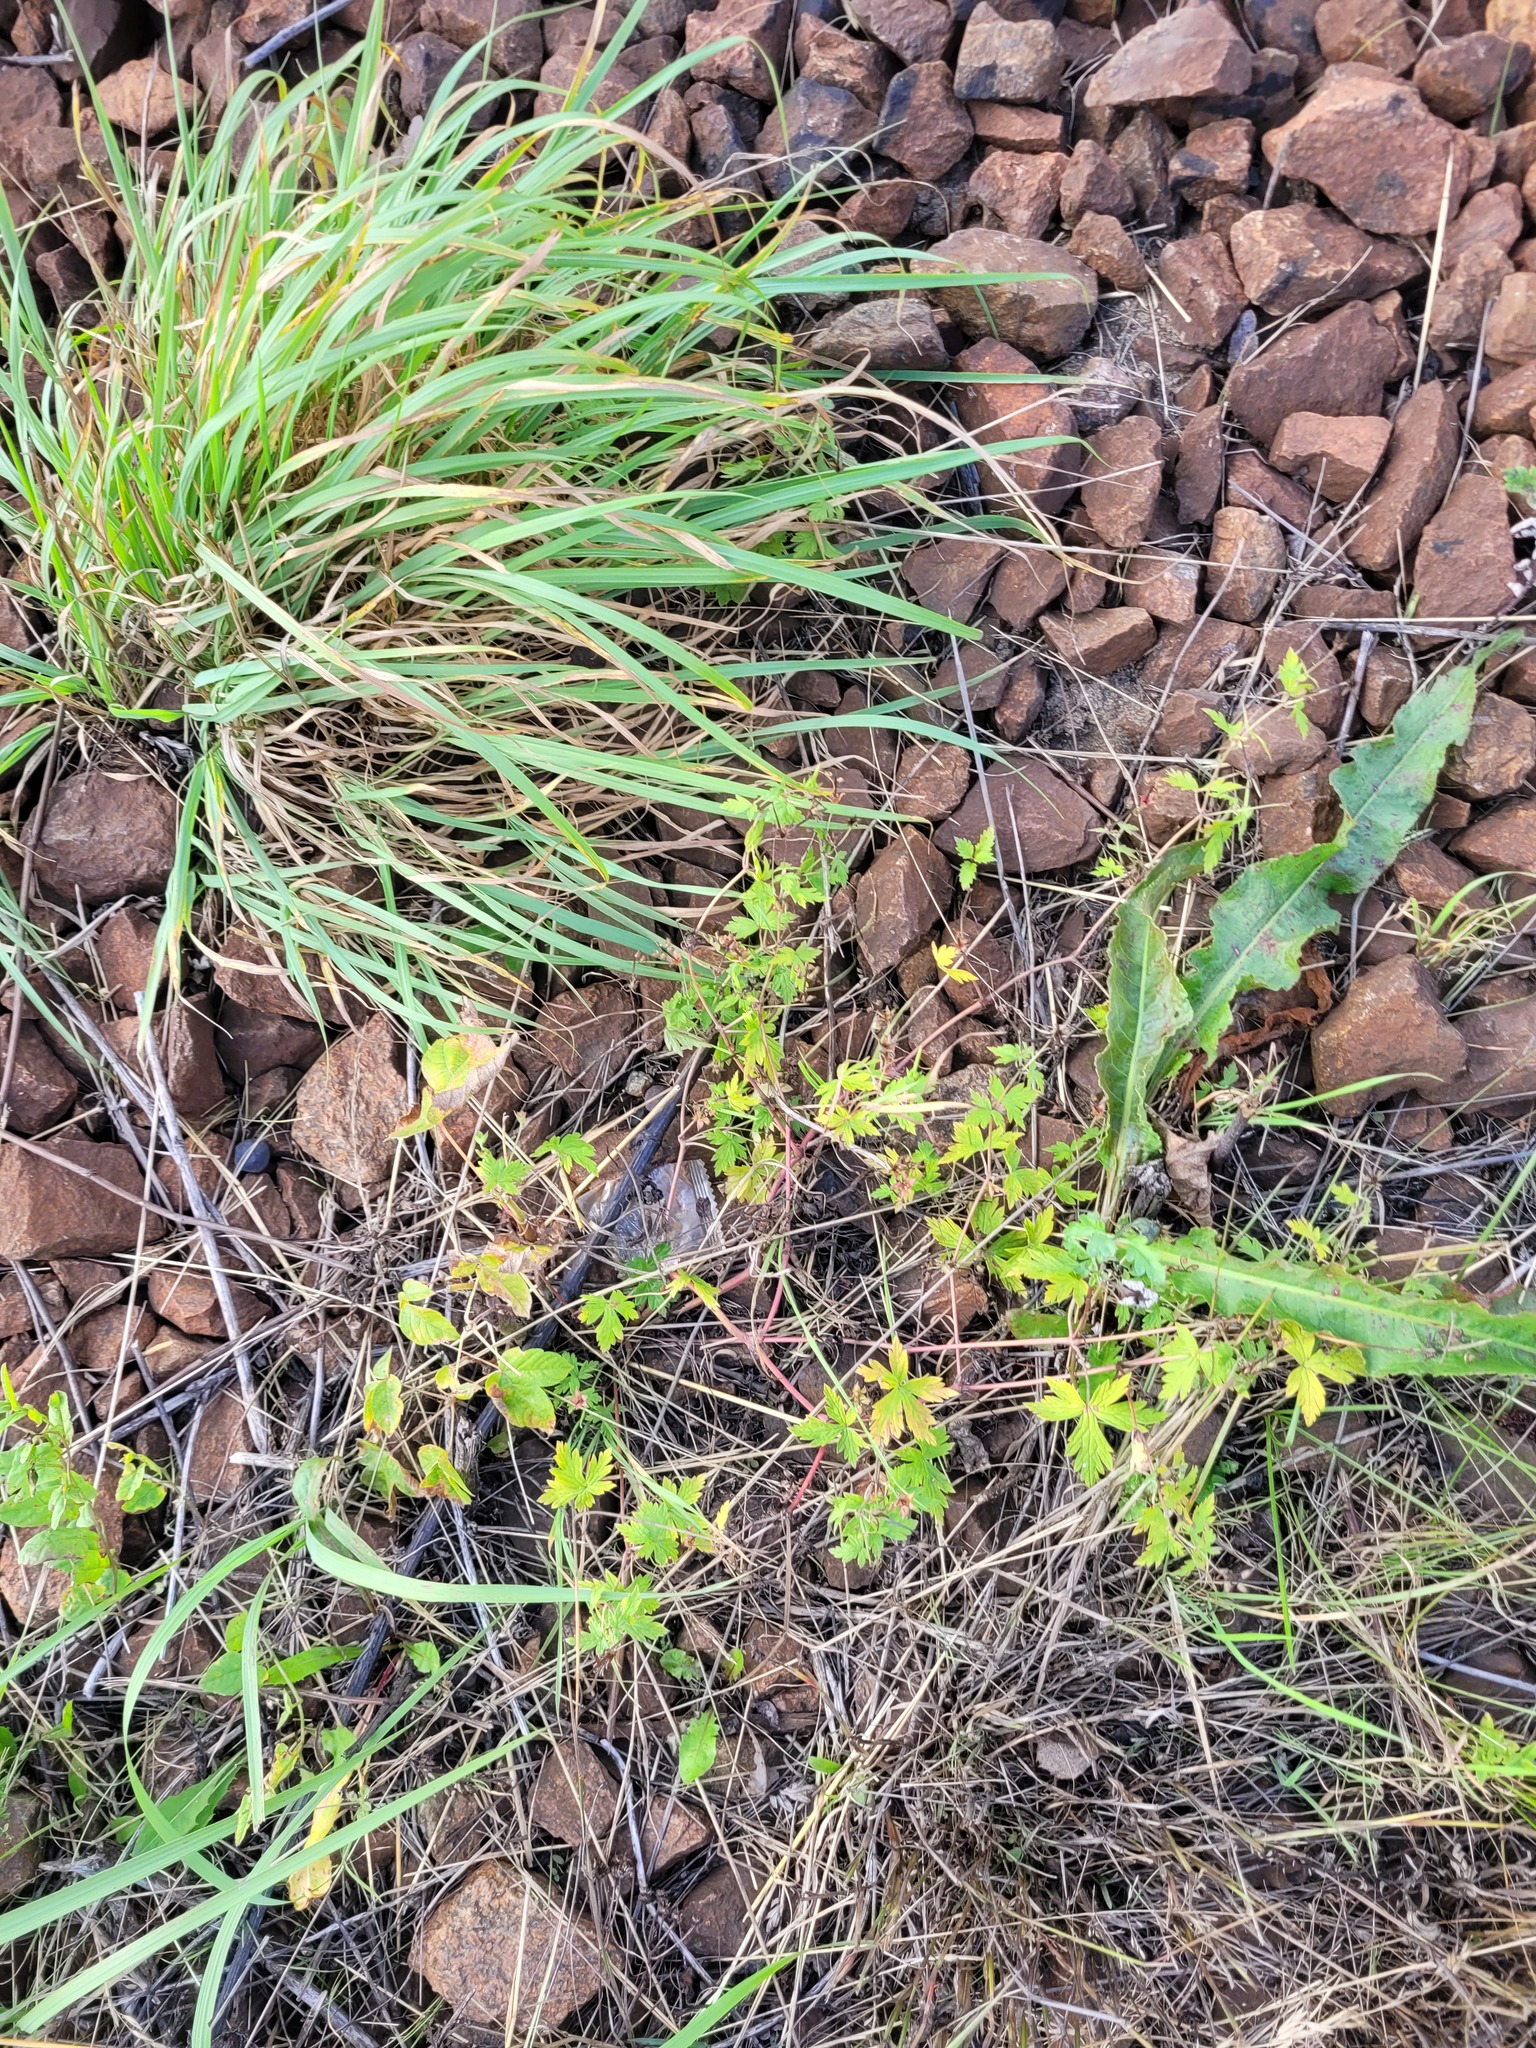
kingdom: Plantae
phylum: Tracheophyta
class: Magnoliopsida
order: Geraniales
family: Geraniaceae
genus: Geranium
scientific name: Geranium sibiricum
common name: Siberian crane's-bill
